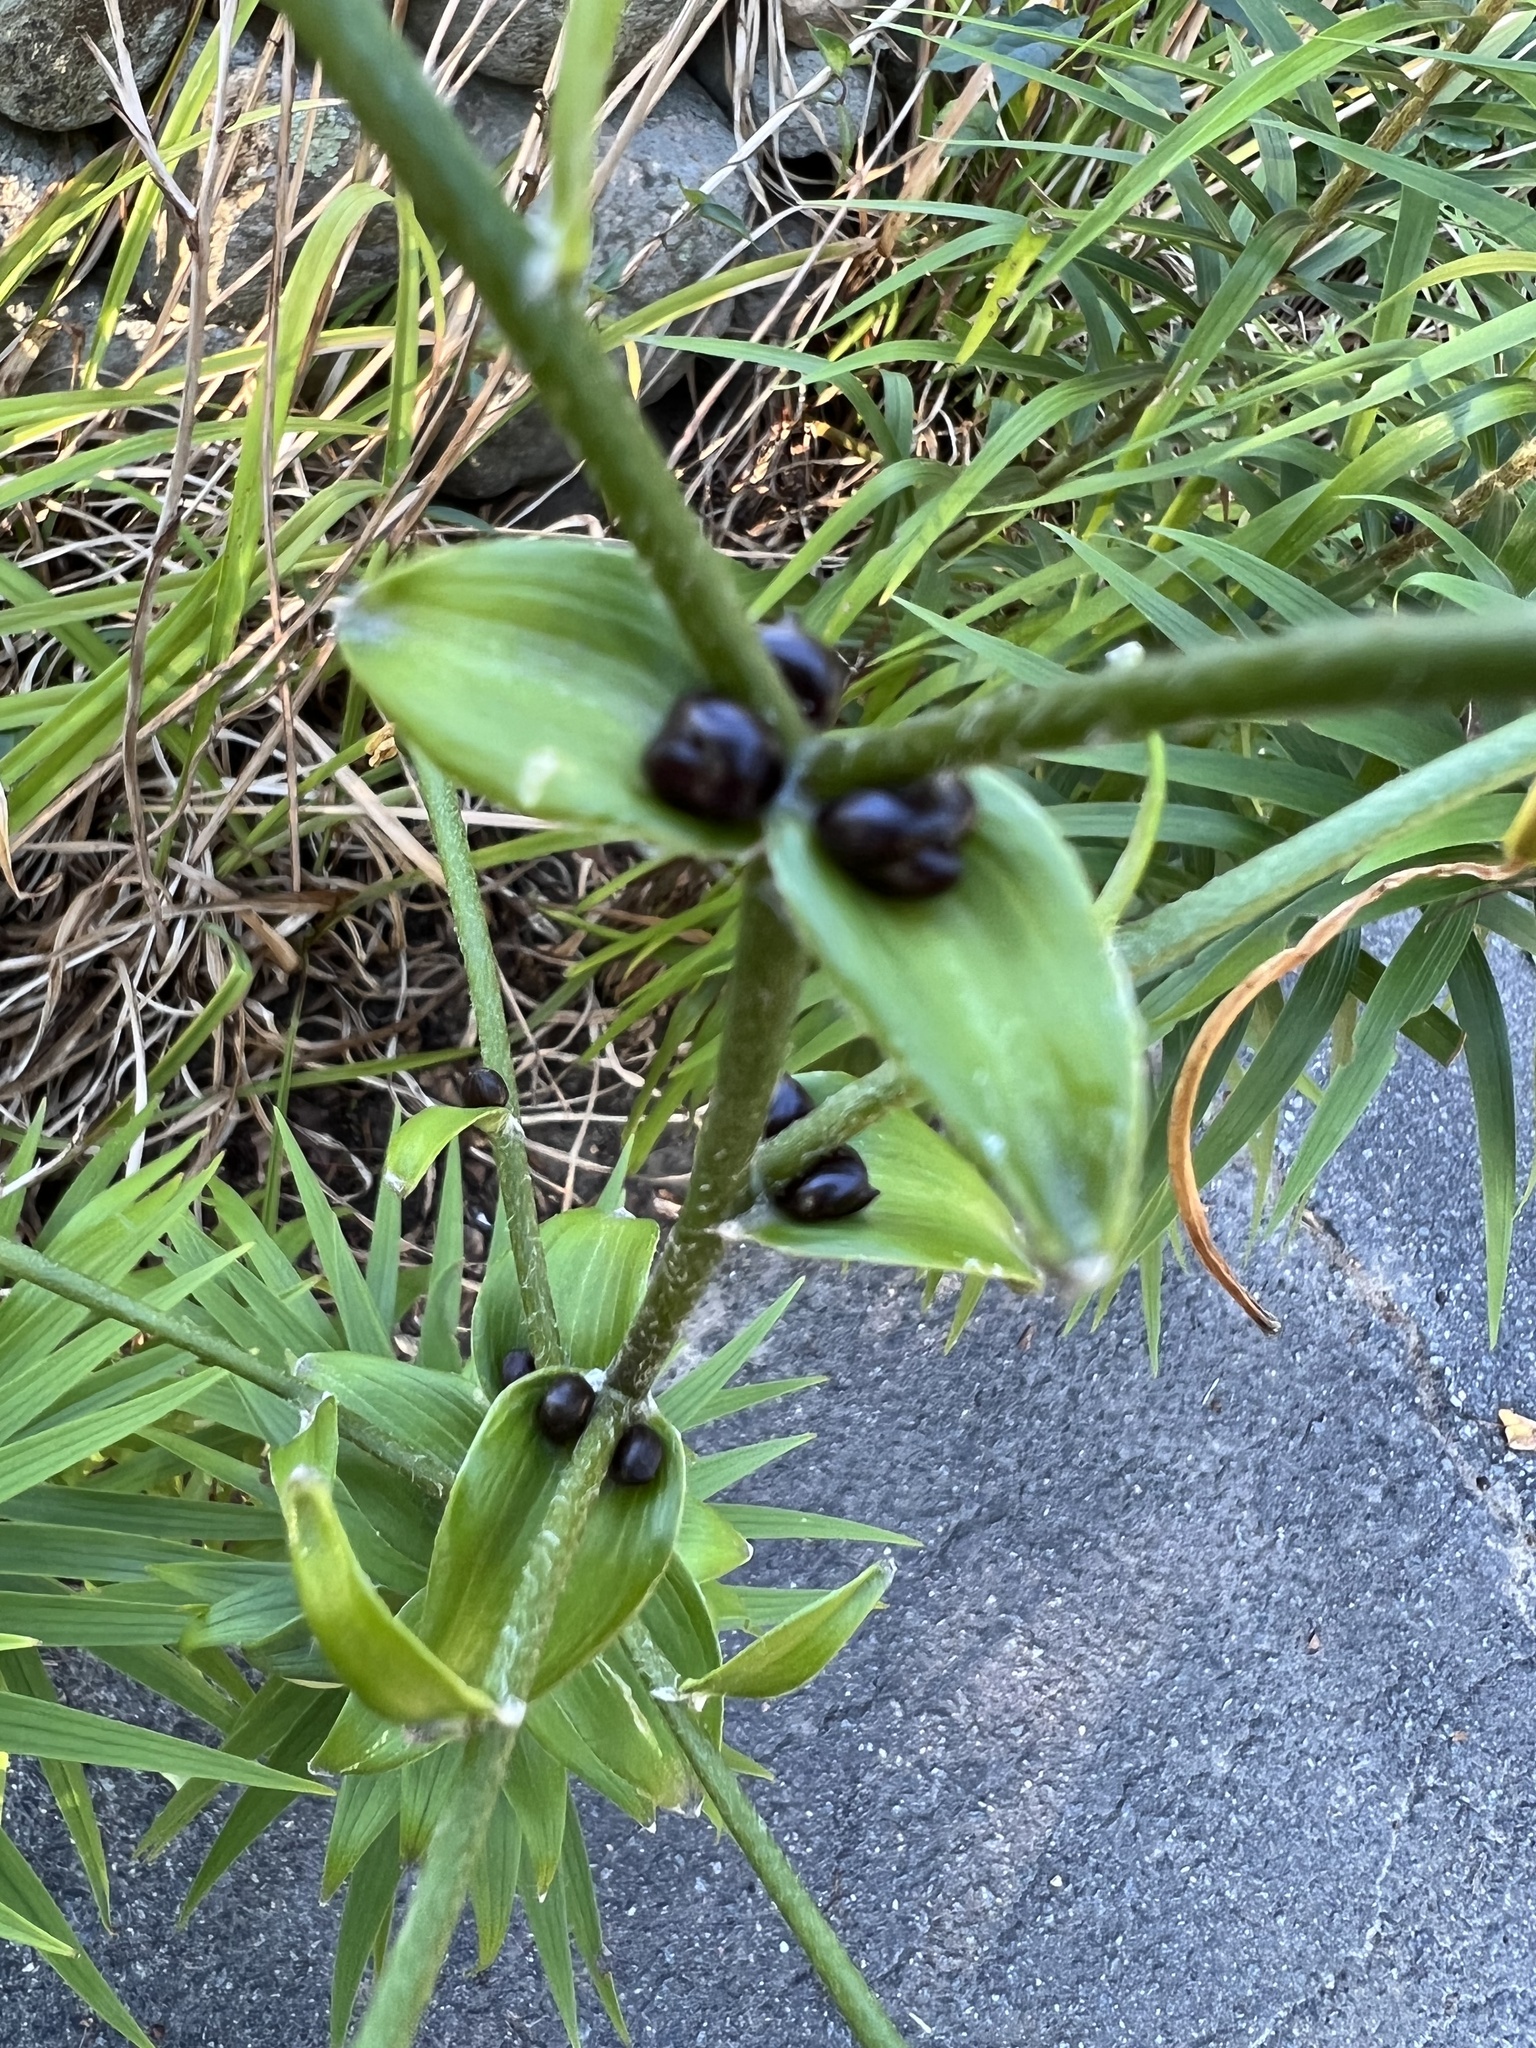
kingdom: Plantae
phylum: Tracheophyta
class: Liliopsida
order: Liliales
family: Liliaceae
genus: Lilium
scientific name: Lilium lancifolium
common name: Tiger lily
